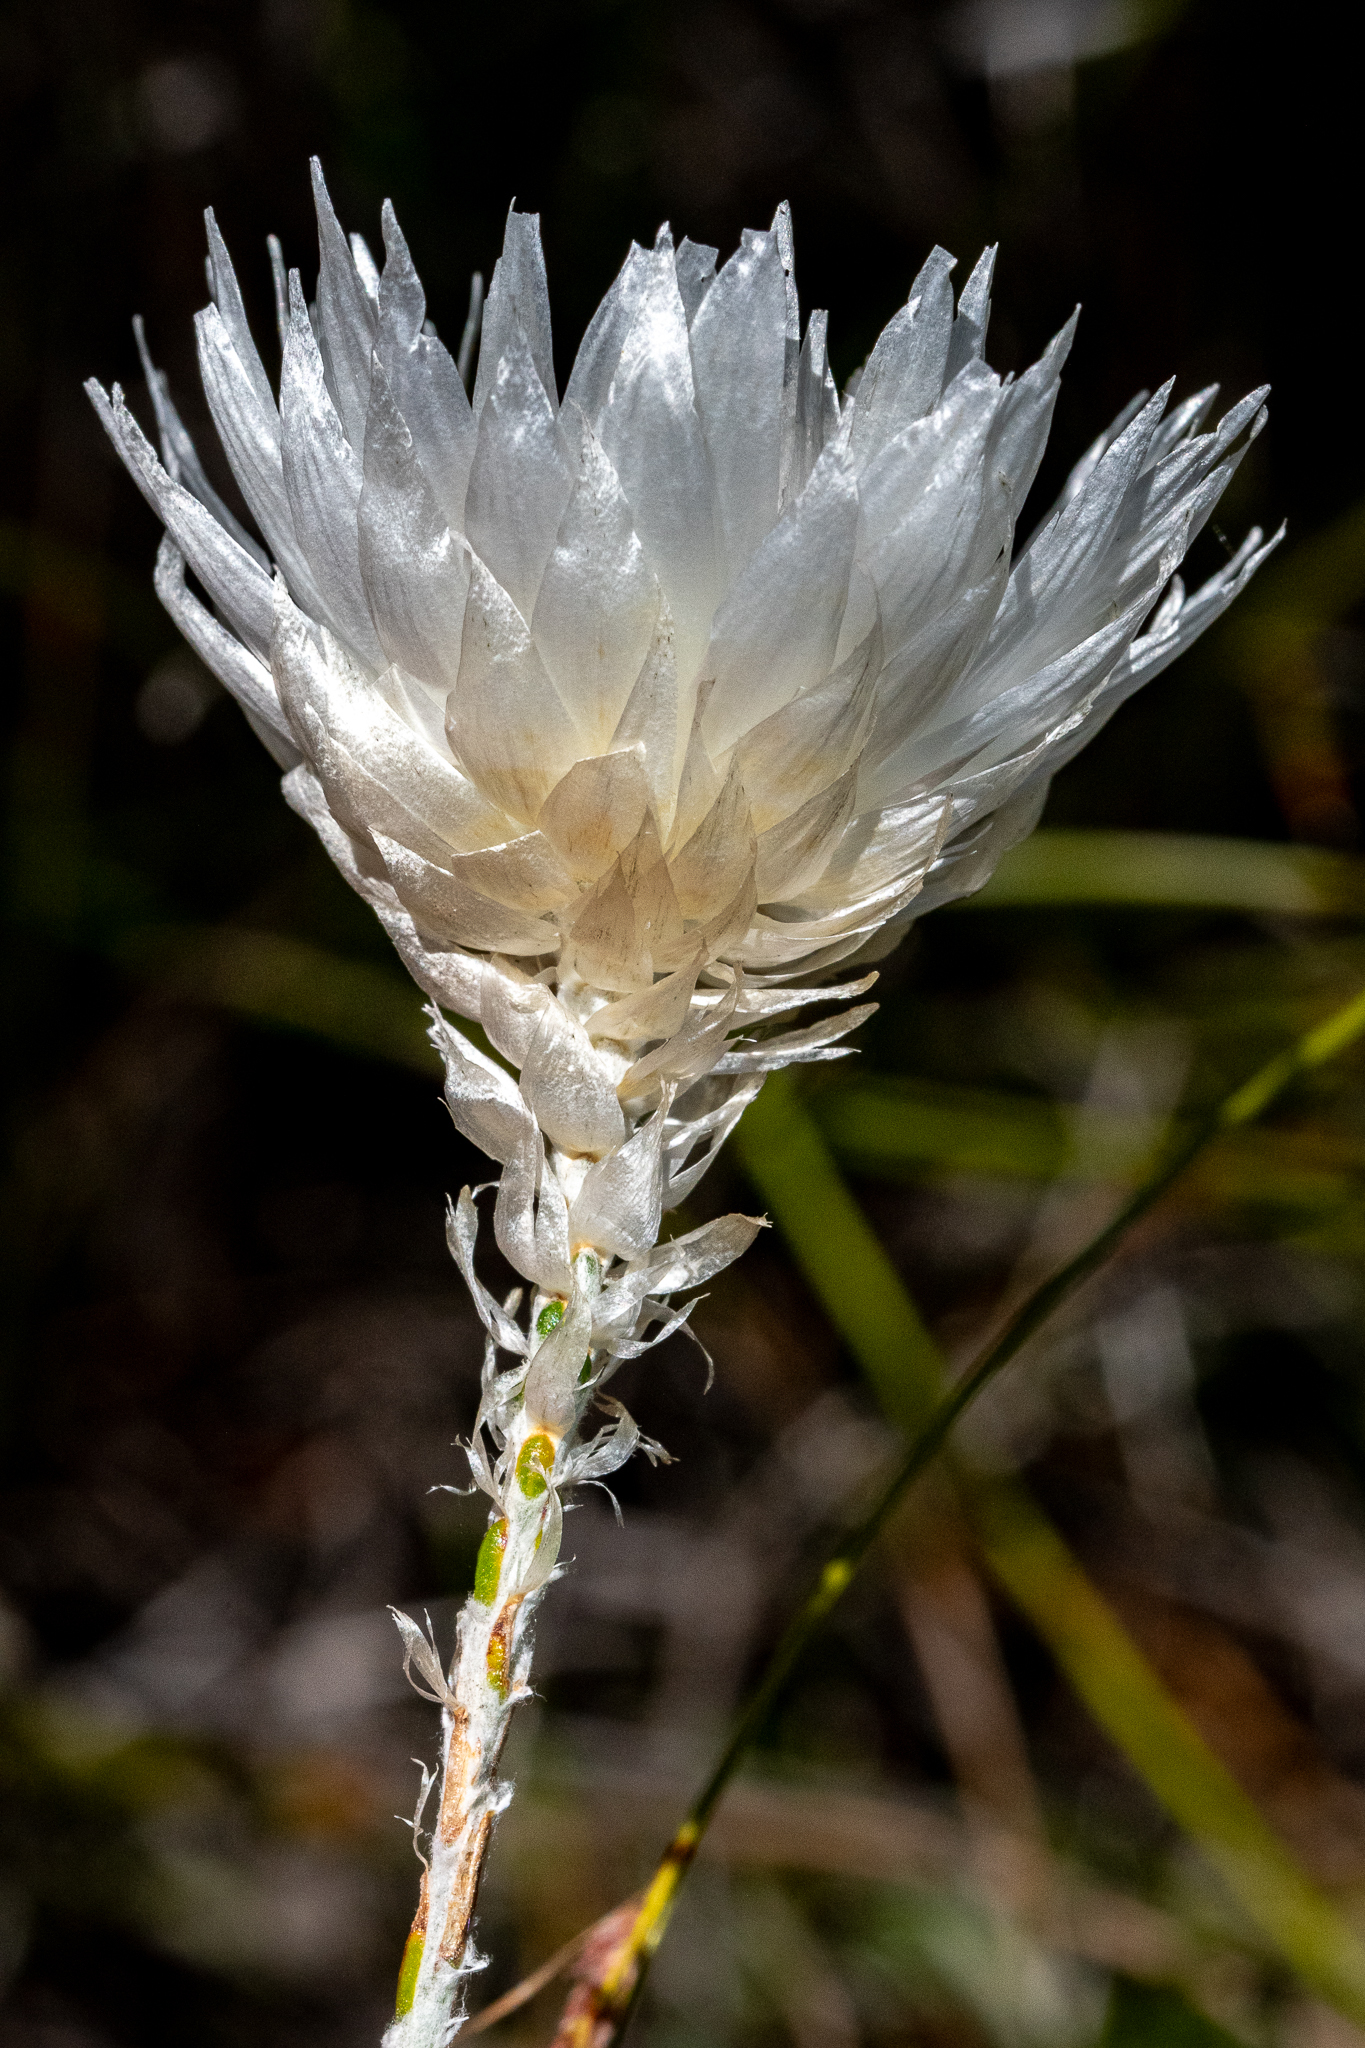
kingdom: Plantae
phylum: Tracheophyta
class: Magnoliopsida
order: Asterales
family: Asteraceae
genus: Edmondia
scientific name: Edmondia sesamoides
